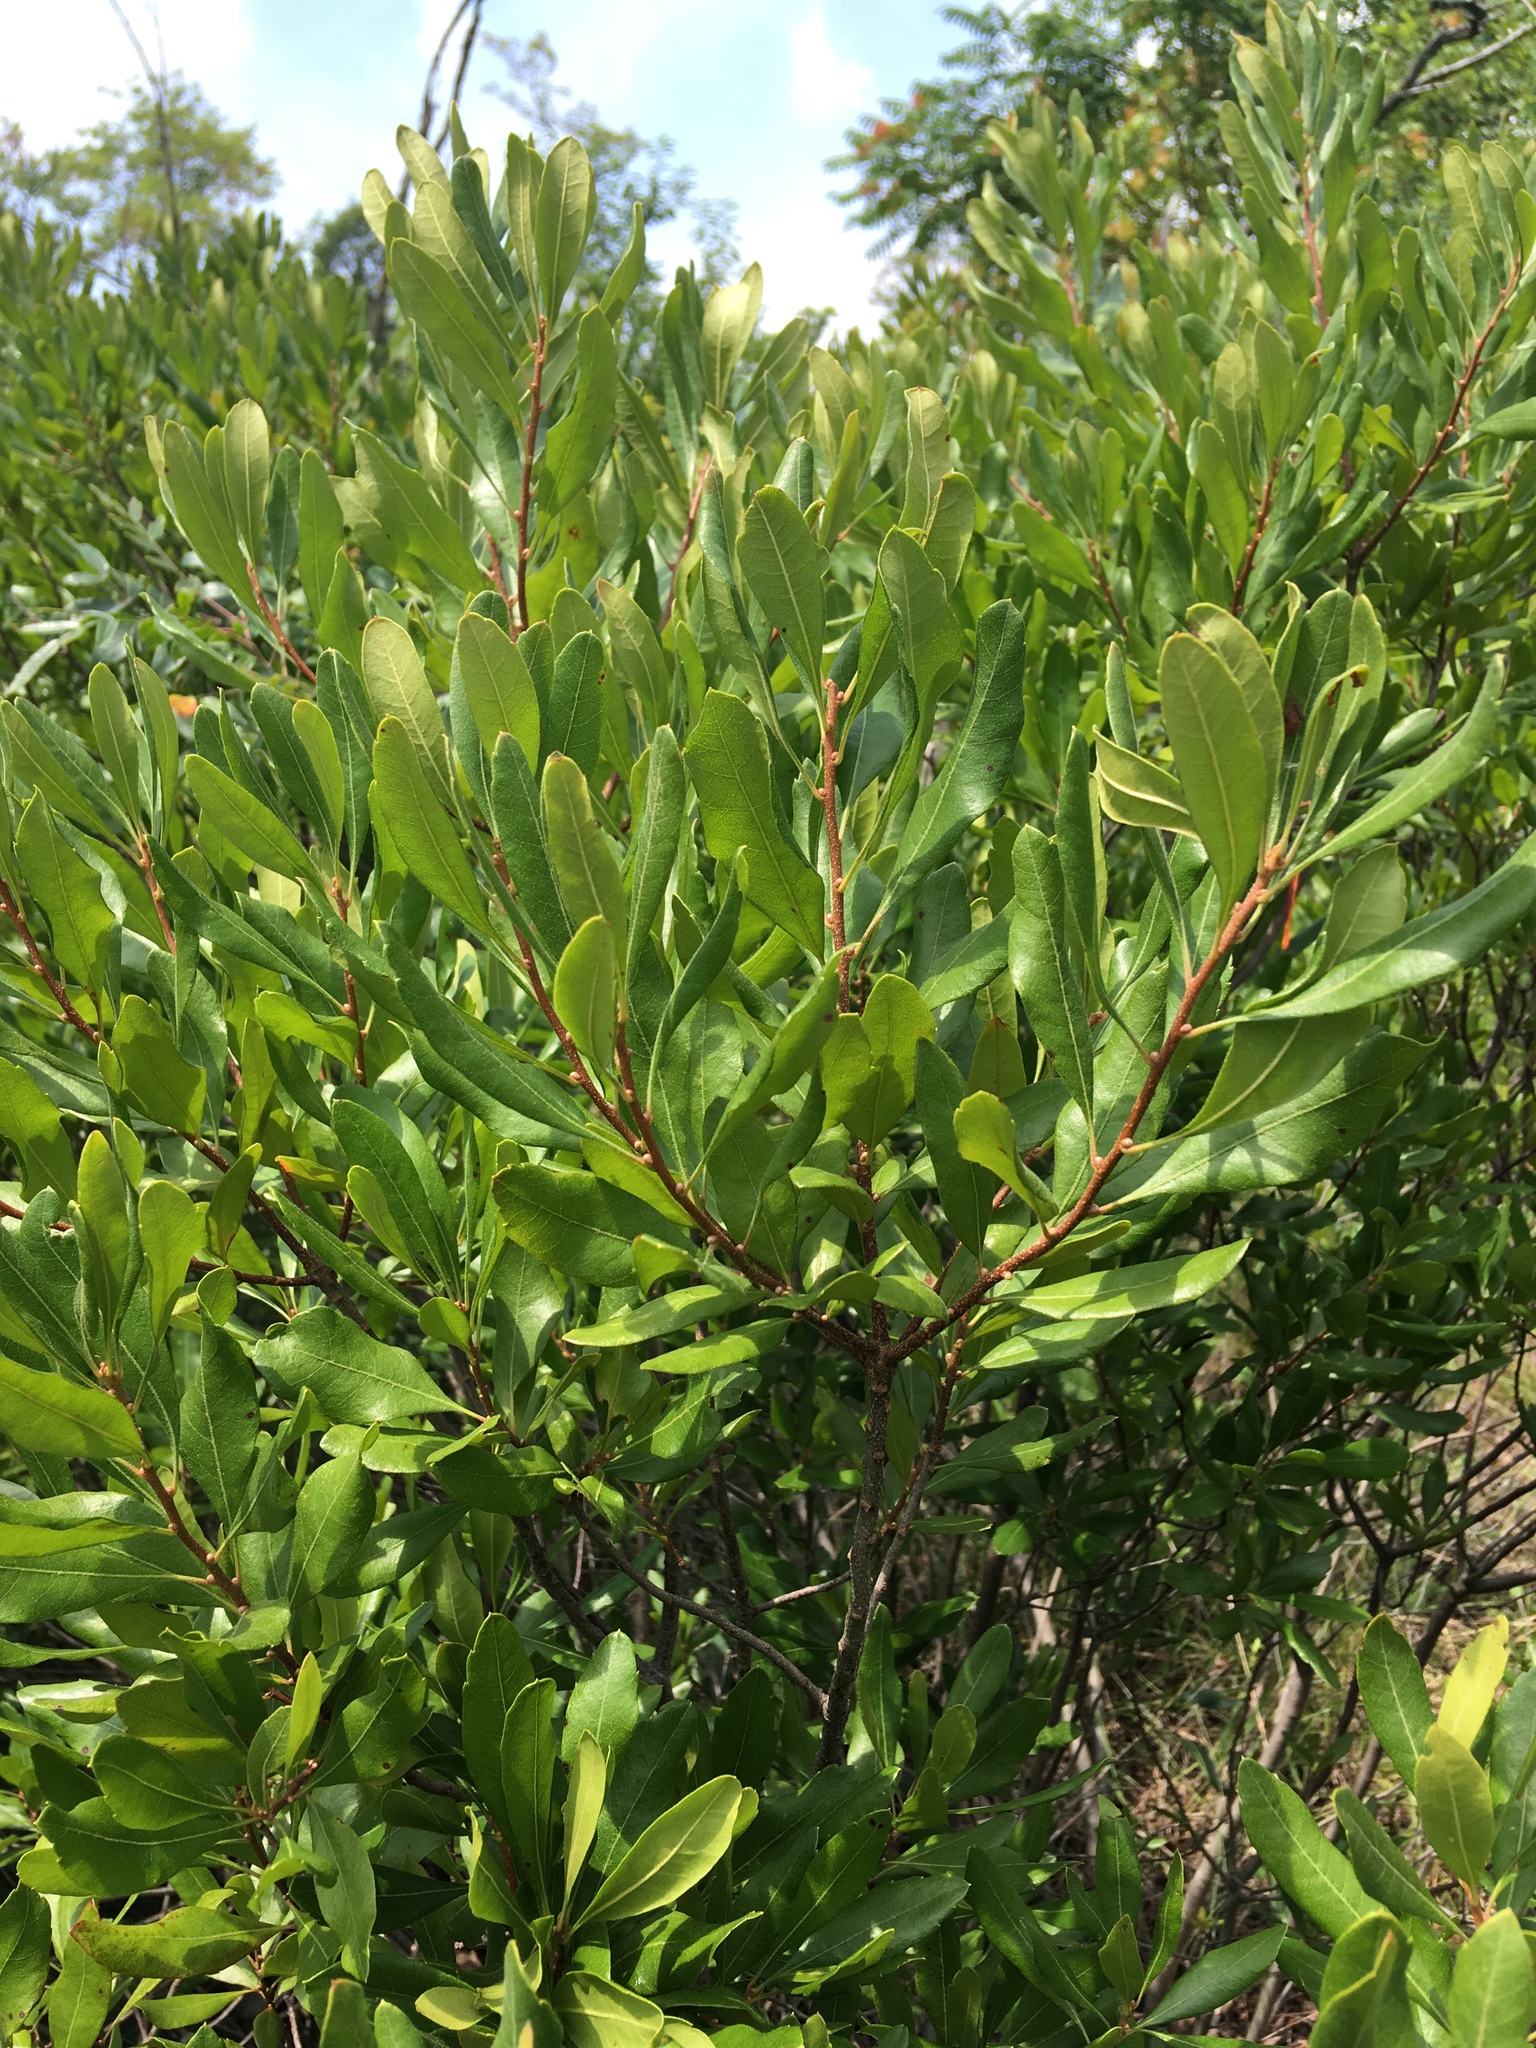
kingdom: Plantae
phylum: Tracheophyta
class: Magnoliopsida
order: Fagales
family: Myricaceae
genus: Morella
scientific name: Morella pensylvanica
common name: Northern bayberry
